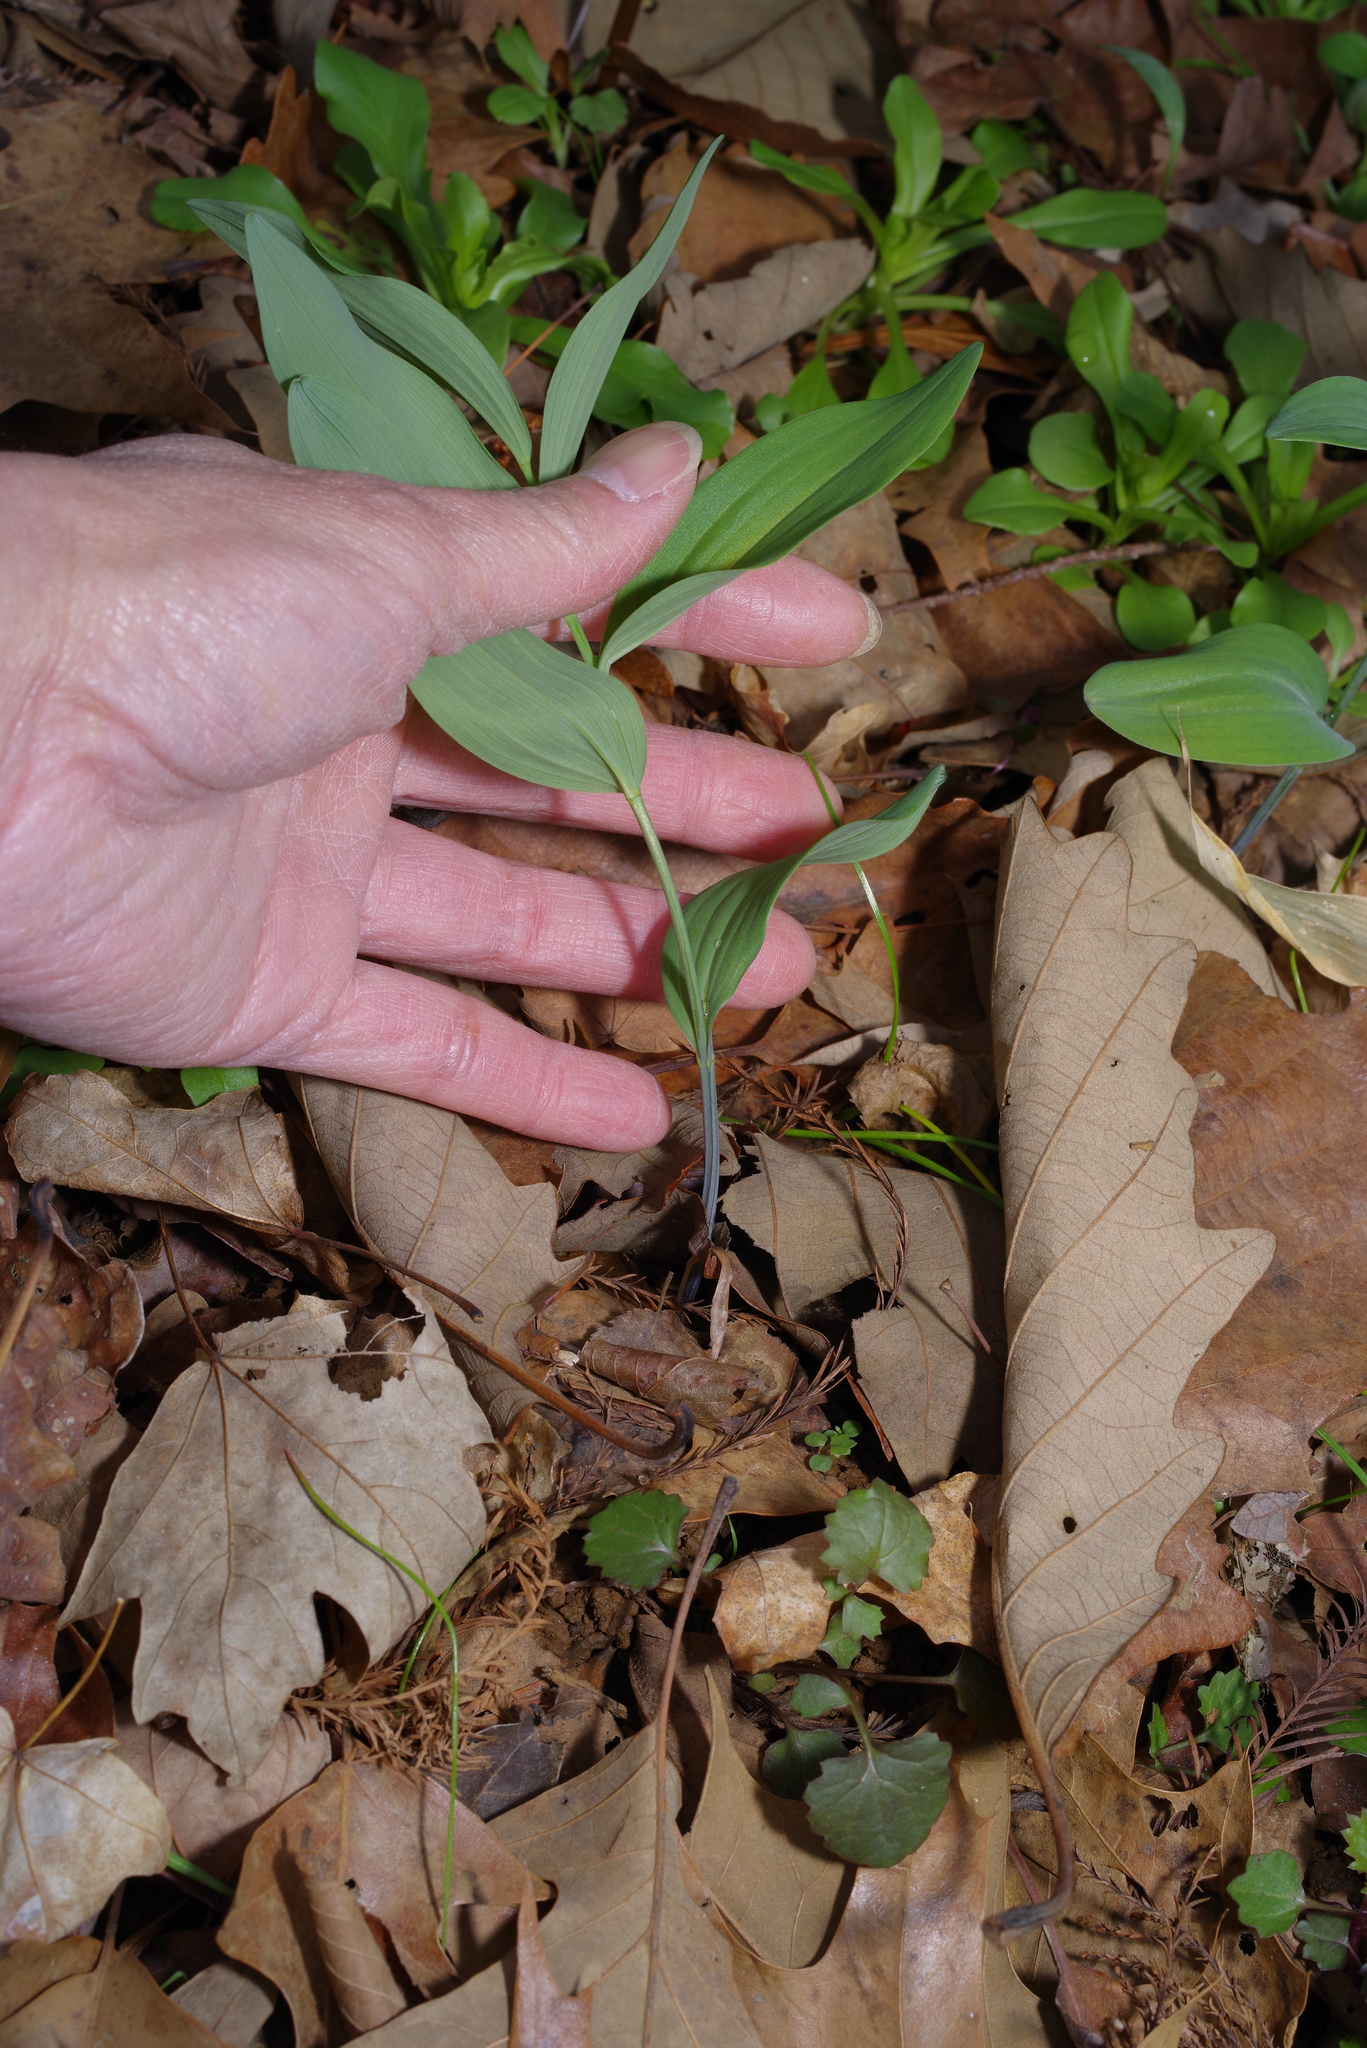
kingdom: Plantae
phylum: Tracheophyta
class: Liliopsida
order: Asparagales
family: Asparagaceae
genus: Polygonatum
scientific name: Polygonatum biflorum
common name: American solomon's-seal
